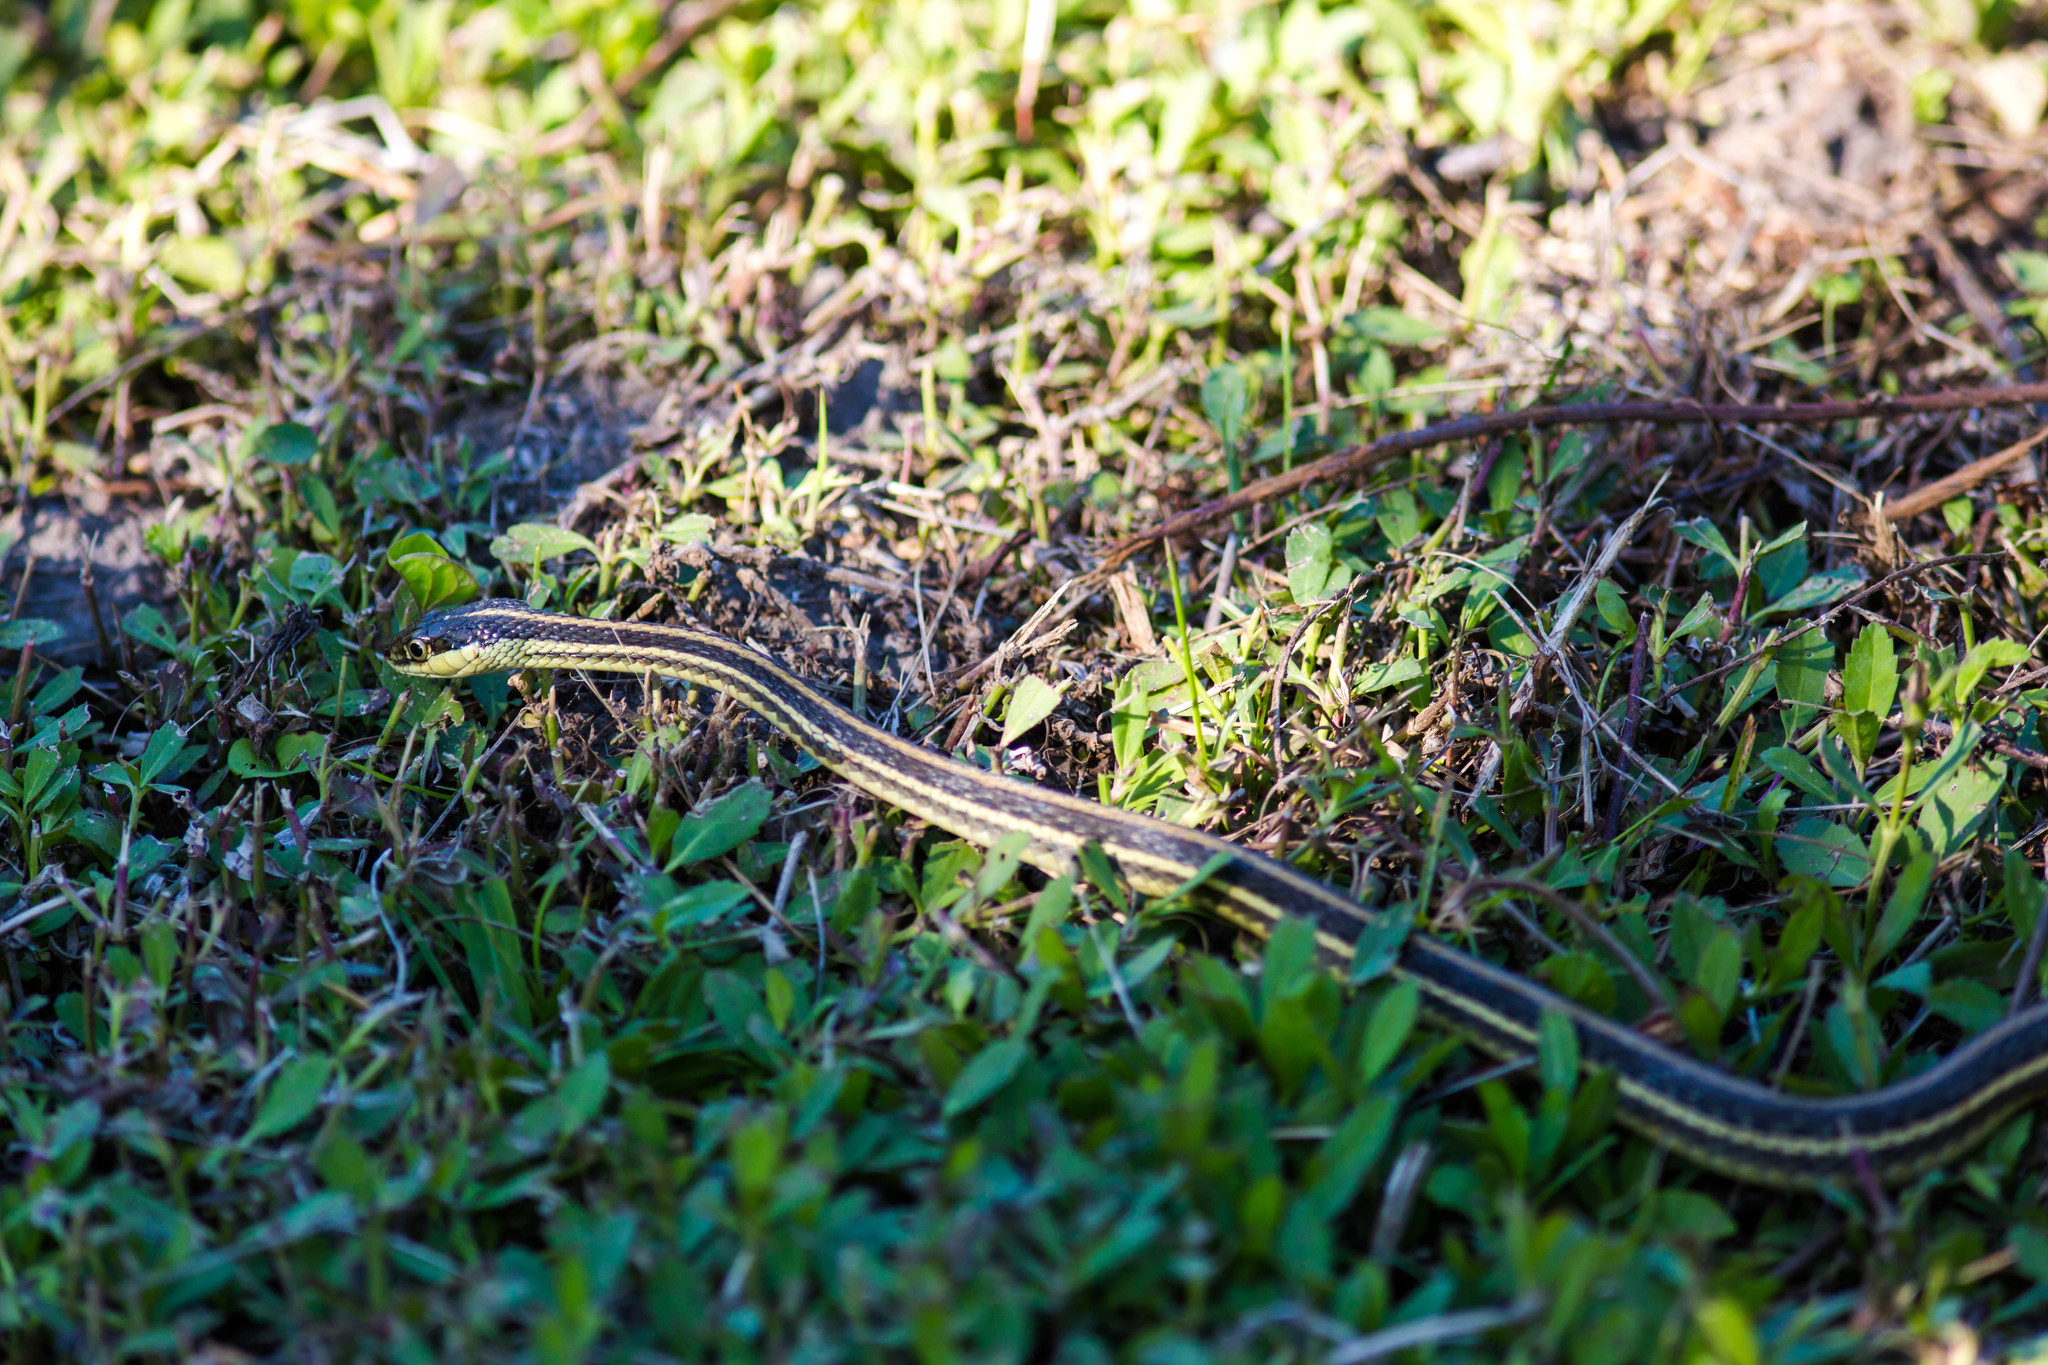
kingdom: Animalia
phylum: Chordata
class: Squamata
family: Colubridae
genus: Thamnophis
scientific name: Thamnophis proximus
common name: Western ribbon snake
